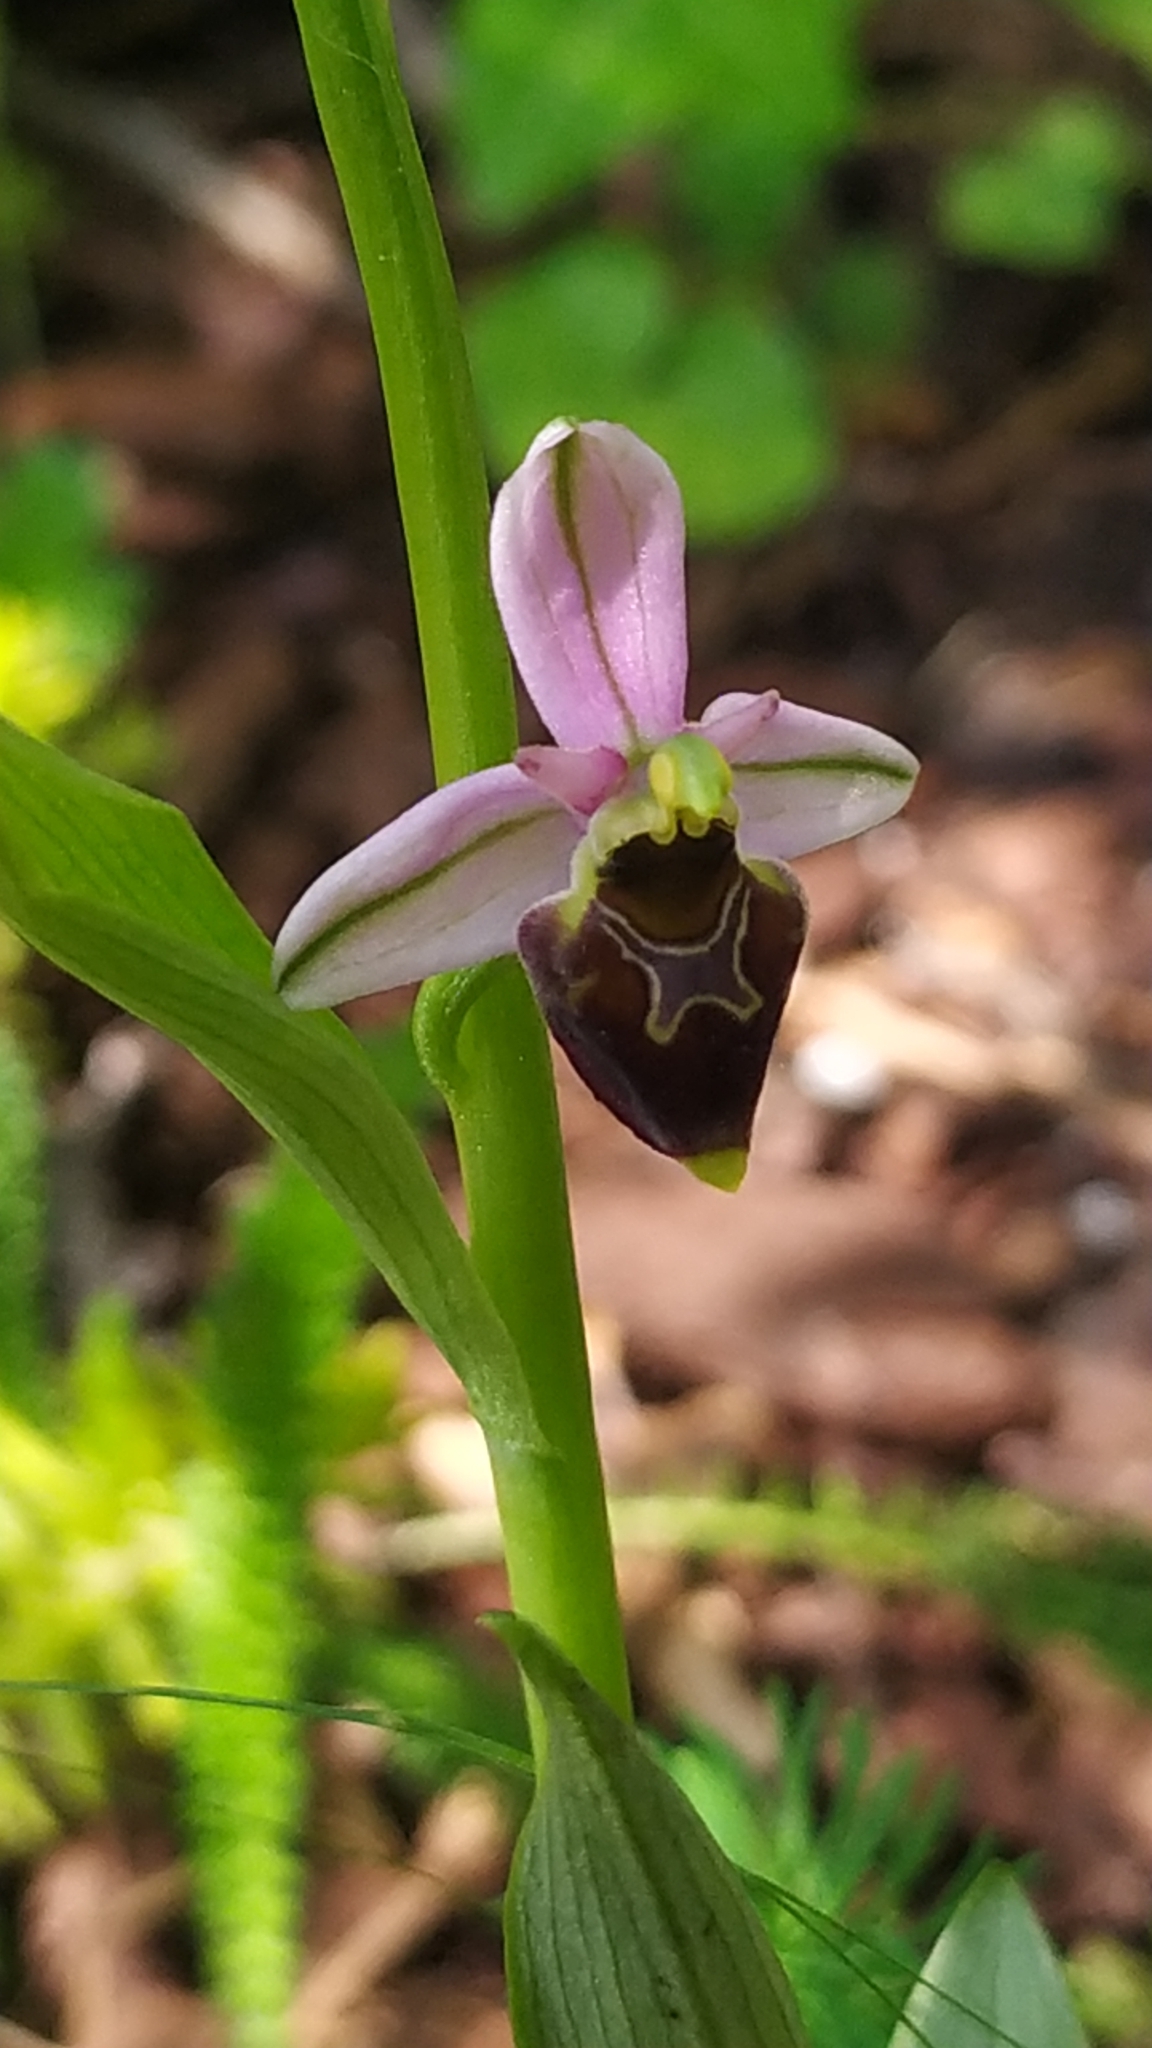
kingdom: Plantae
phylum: Tracheophyta
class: Liliopsida
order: Asparagales
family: Orchidaceae
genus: Ophrys
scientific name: Ophrys holosericea
